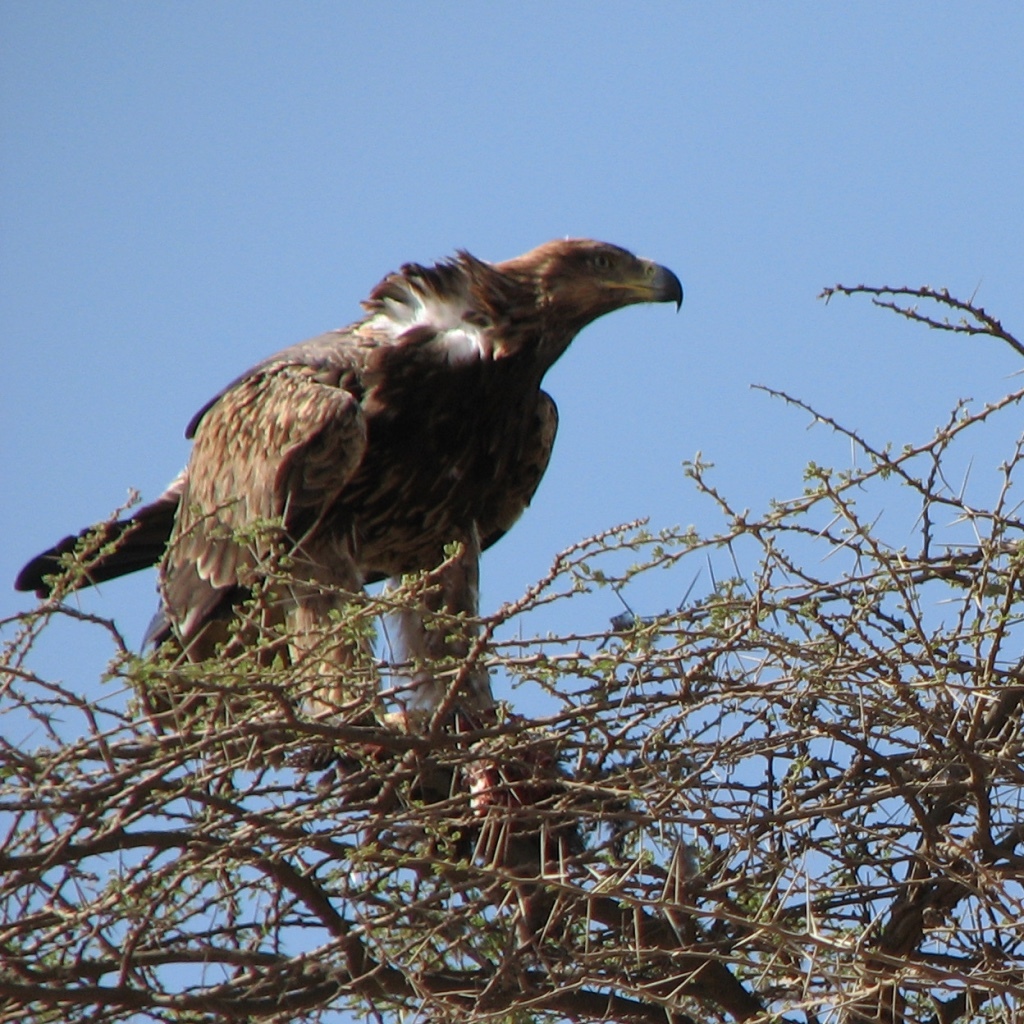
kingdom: Animalia
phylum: Chordata
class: Aves
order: Accipitriformes
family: Accipitridae
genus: Aquila
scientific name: Aquila rapax
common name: Tawny eagle
